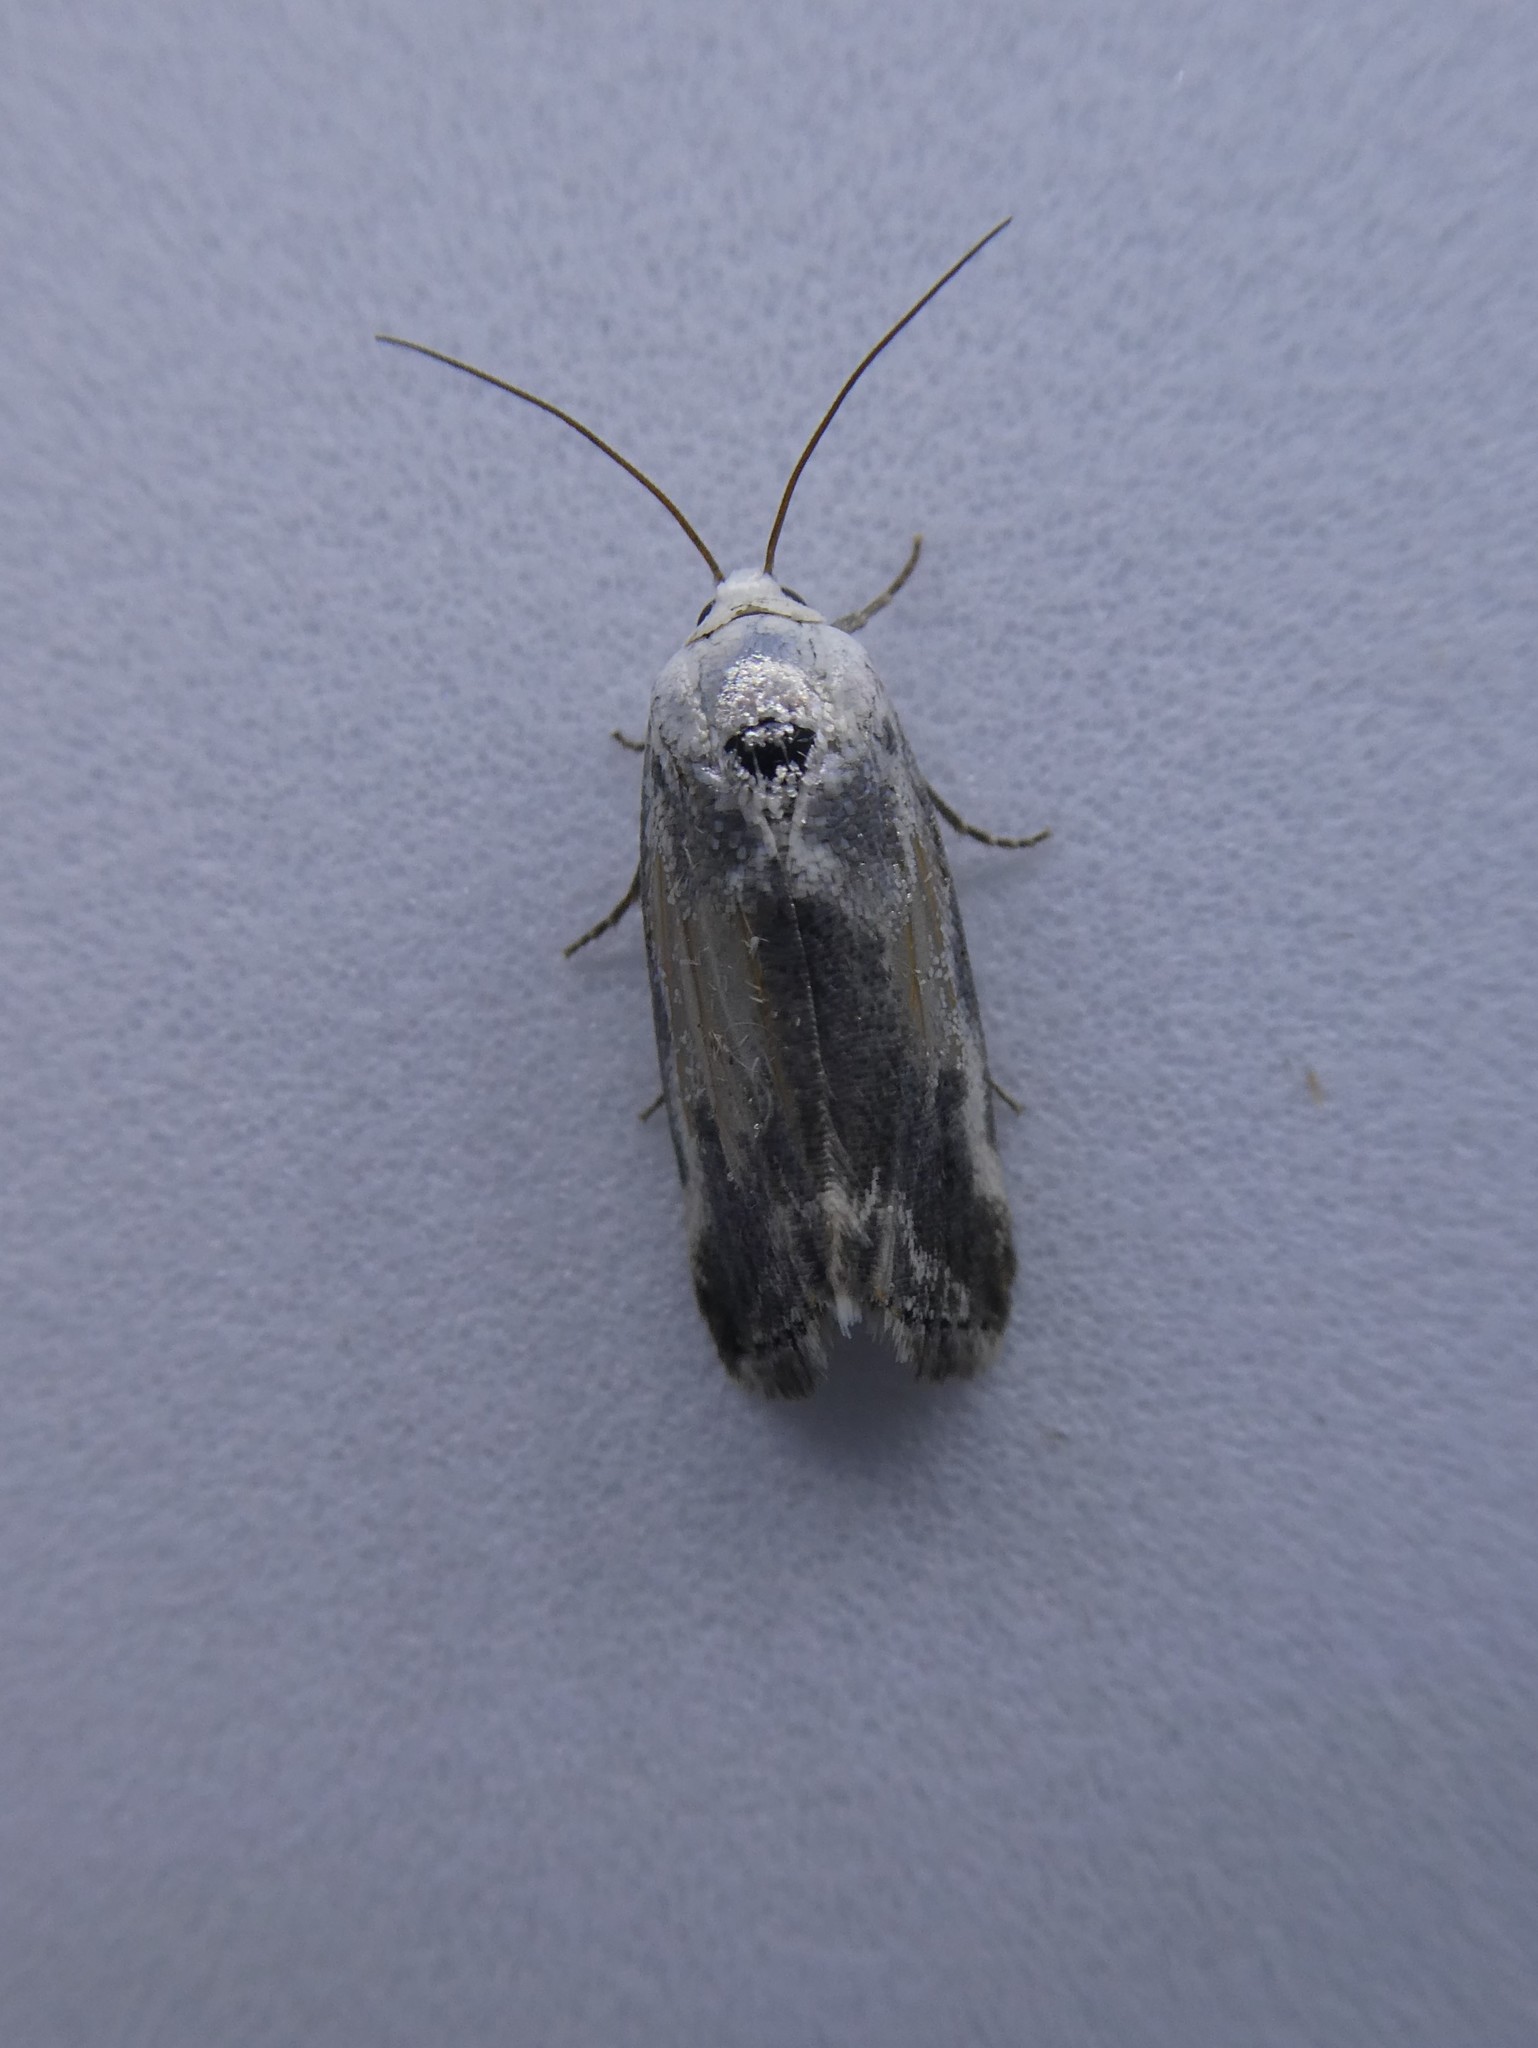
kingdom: Animalia
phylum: Arthropoda
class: Insecta
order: Lepidoptera
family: Noctuidae
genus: Acontia
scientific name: Acontia candefacta
